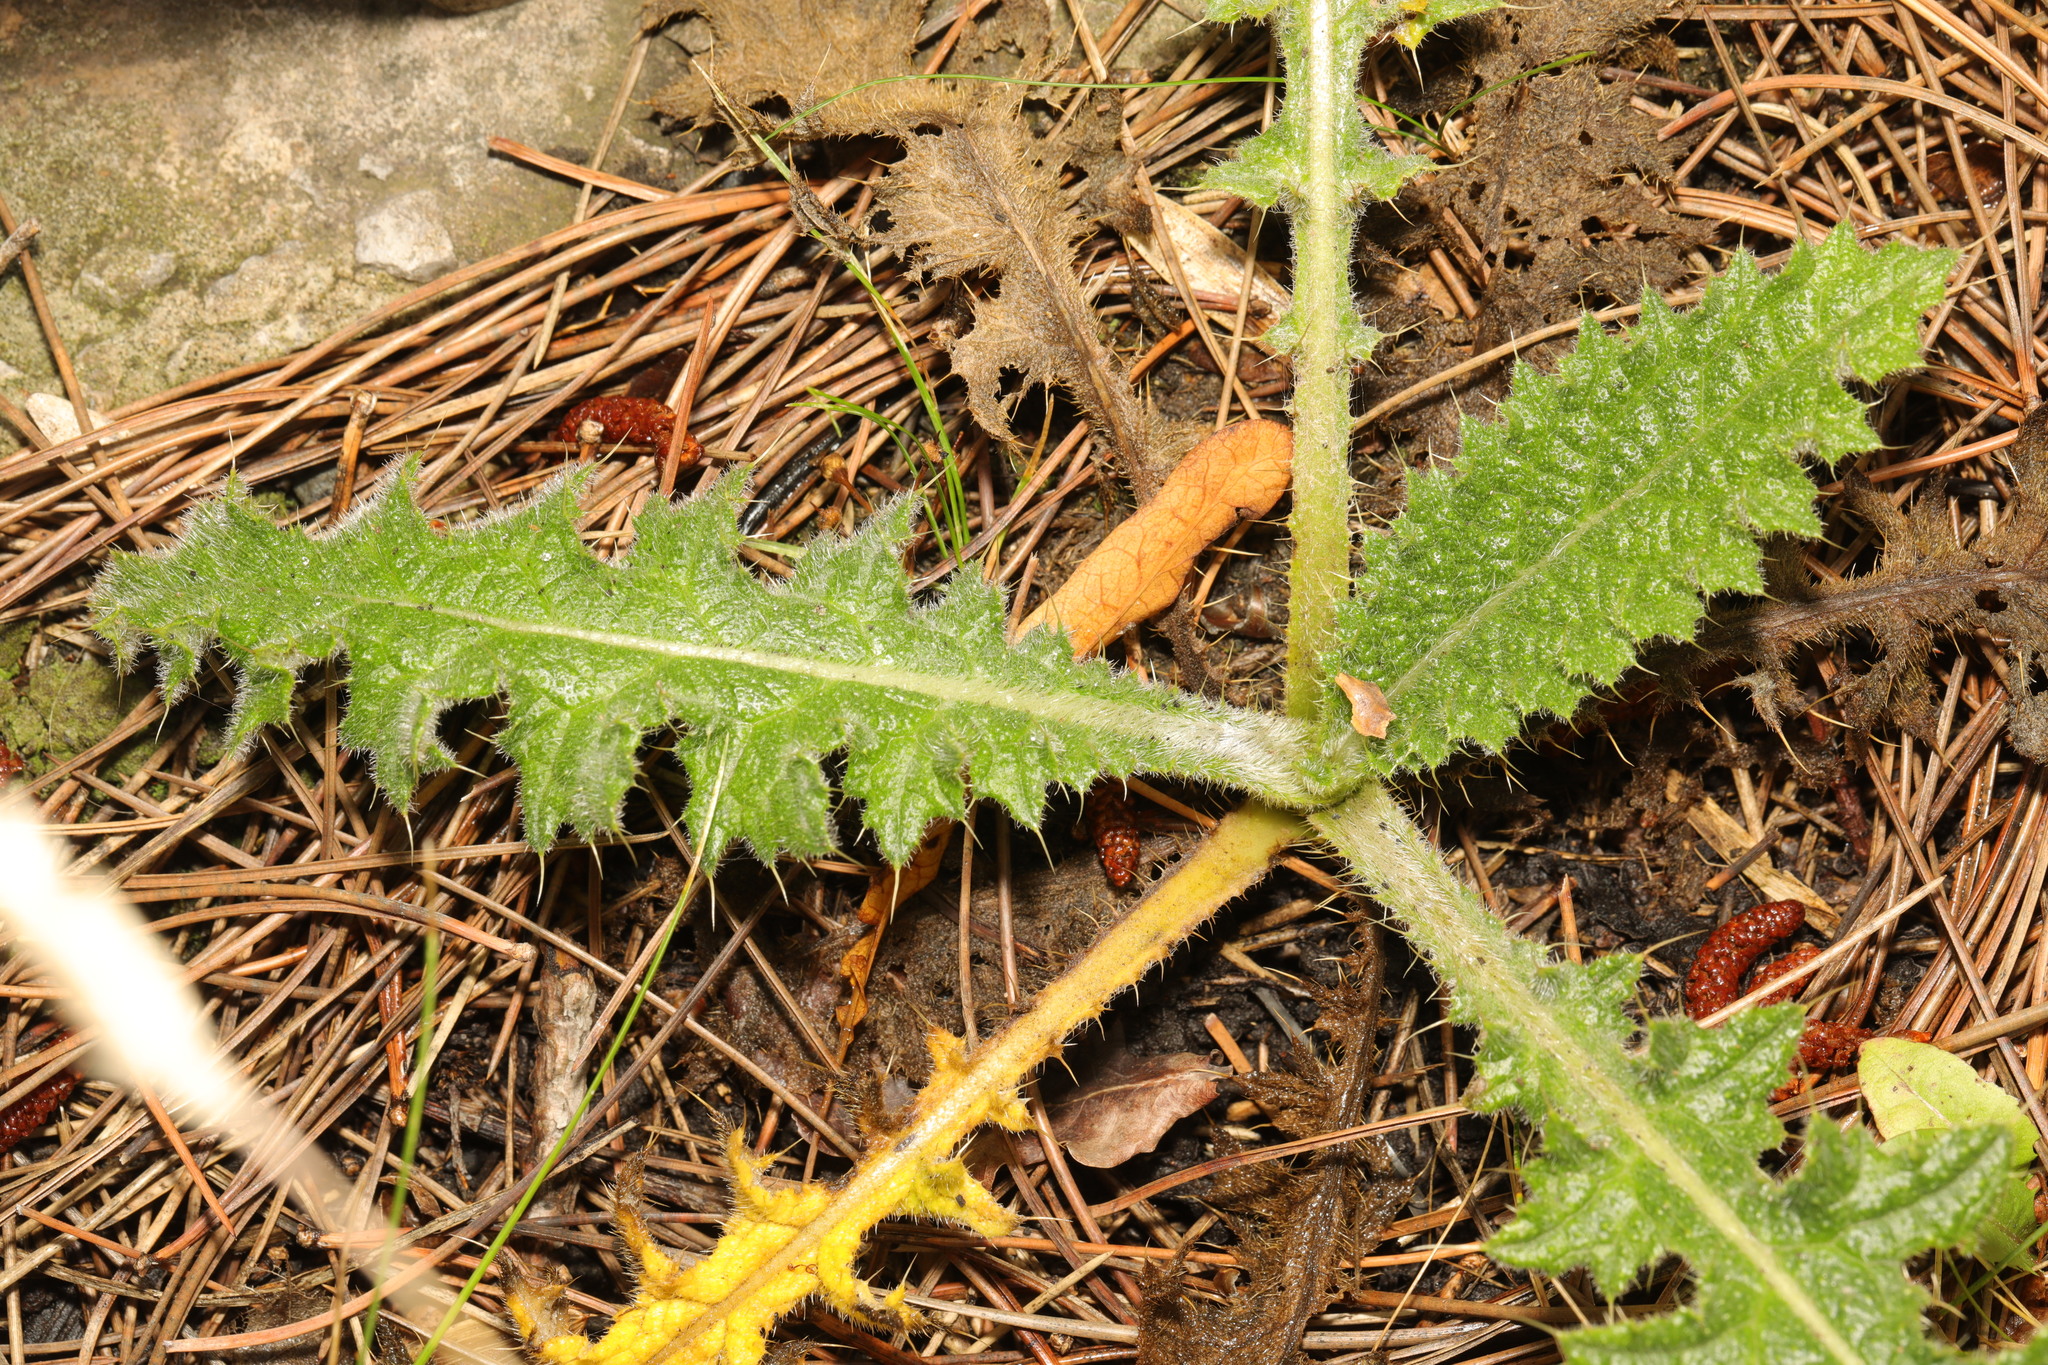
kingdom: Plantae
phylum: Tracheophyta
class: Magnoliopsida
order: Asterales
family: Asteraceae
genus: Cirsium
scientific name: Cirsium vulgare
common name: Bull thistle
